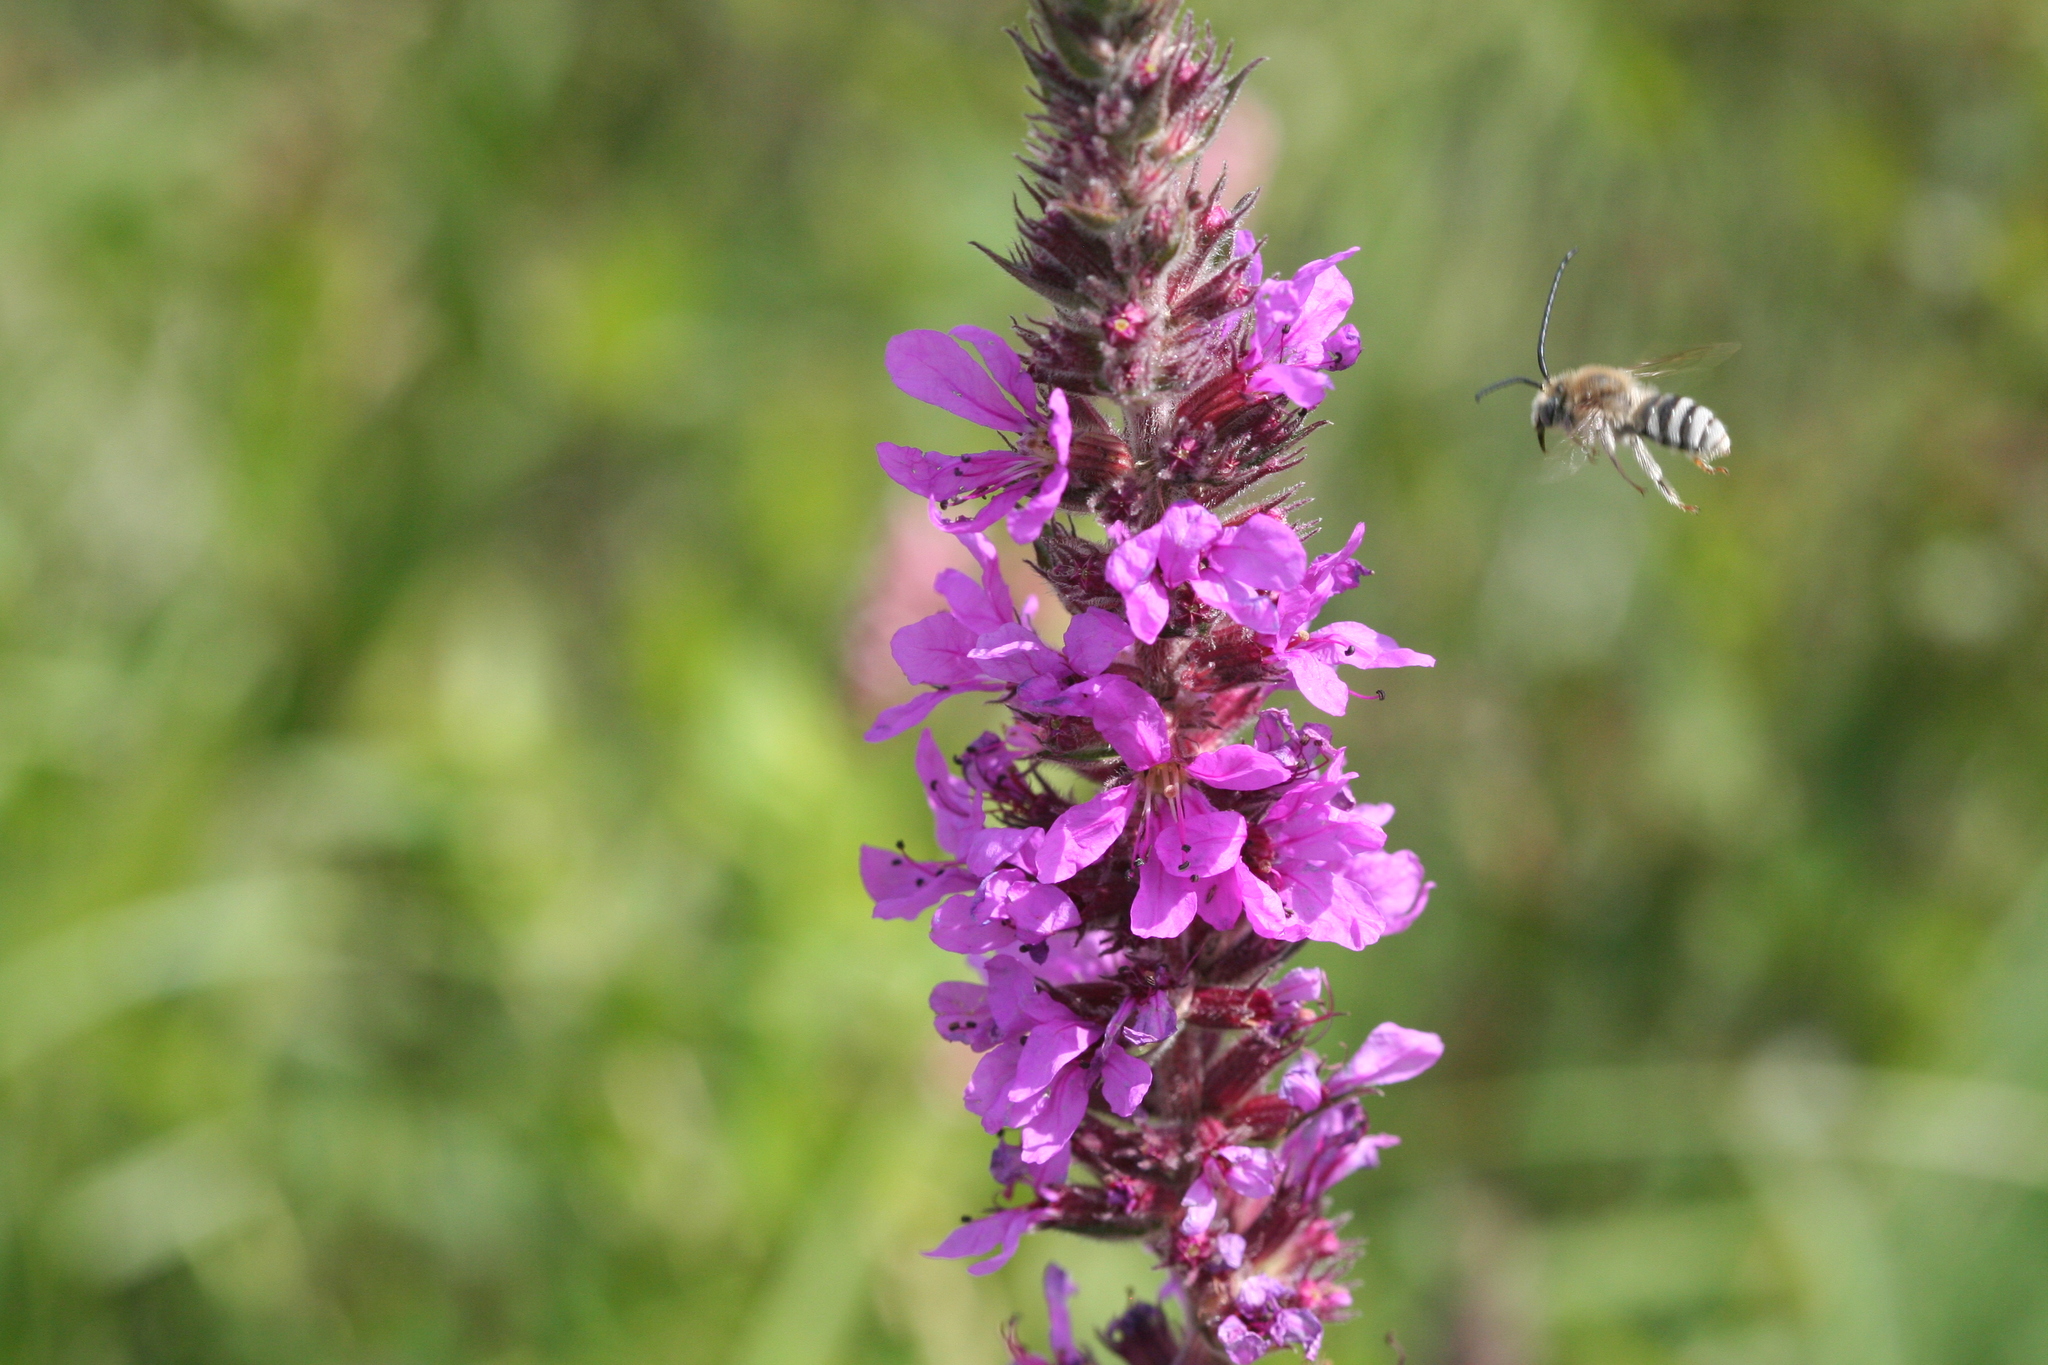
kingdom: Plantae
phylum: Tracheophyta
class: Magnoliopsida
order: Myrtales
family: Lythraceae
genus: Lythrum
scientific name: Lythrum salicaria
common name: Purple loosestrife
